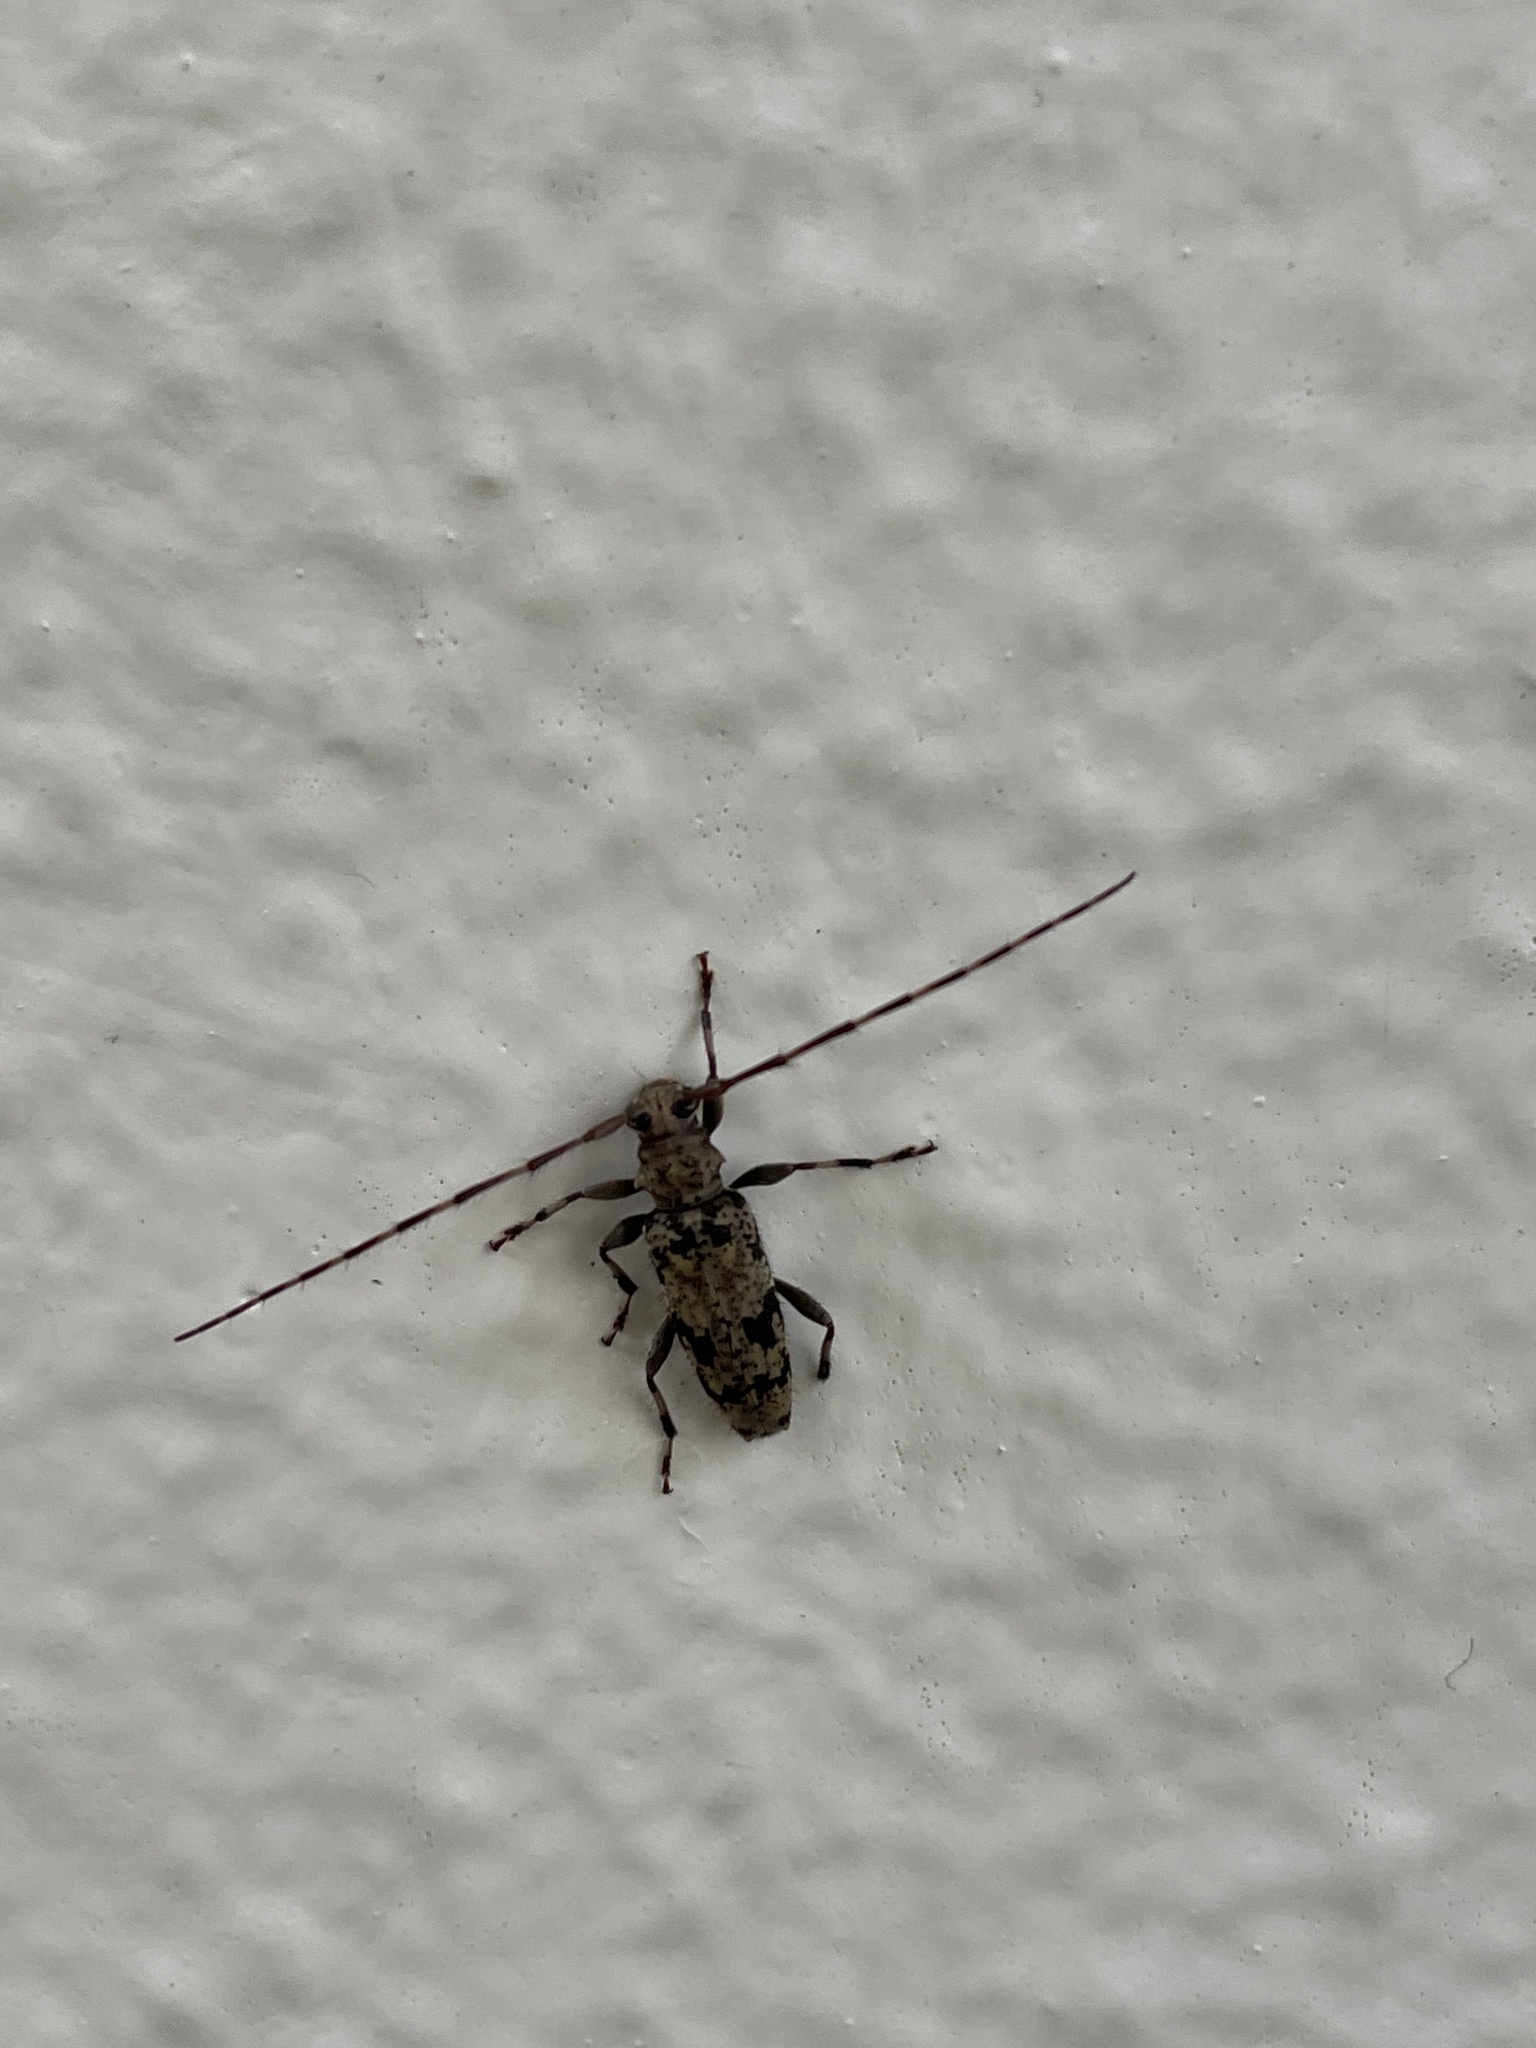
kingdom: Animalia
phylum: Arthropoda
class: Insecta
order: Coleoptera
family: Cerambycidae
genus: Ostedes
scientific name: Ostedes inermis
